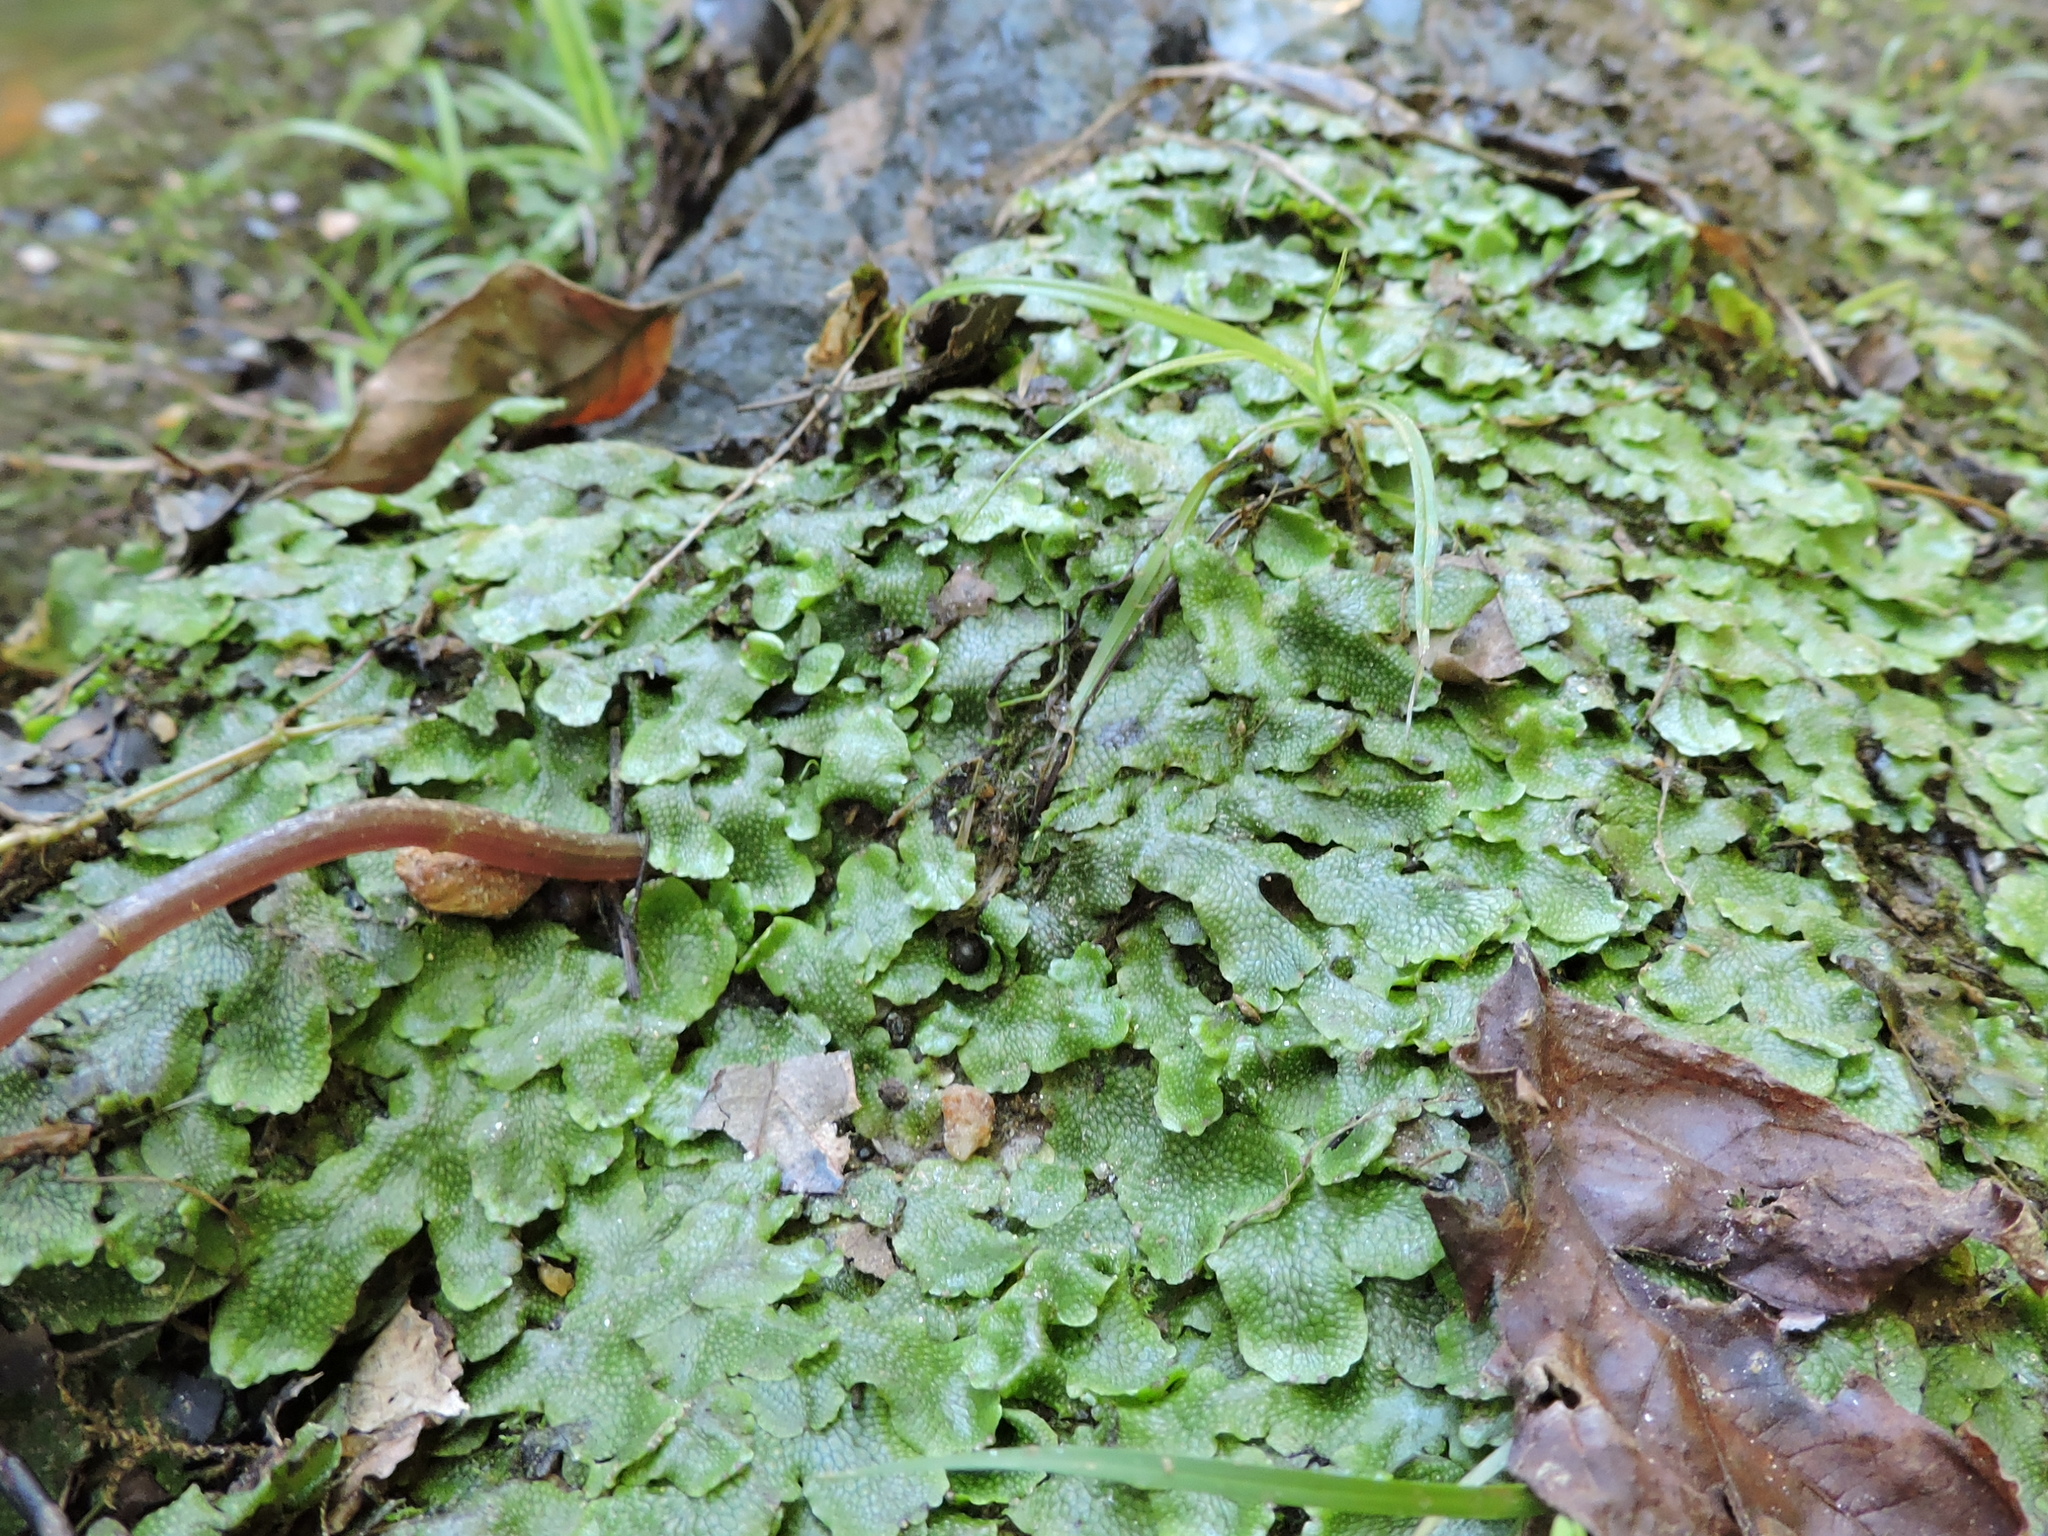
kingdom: Plantae
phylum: Marchantiophyta
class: Marchantiopsida
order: Marchantiales
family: Conocephalaceae
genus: Conocephalum
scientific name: Conocephalum salebrosum
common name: Cat-tongue liverwort
